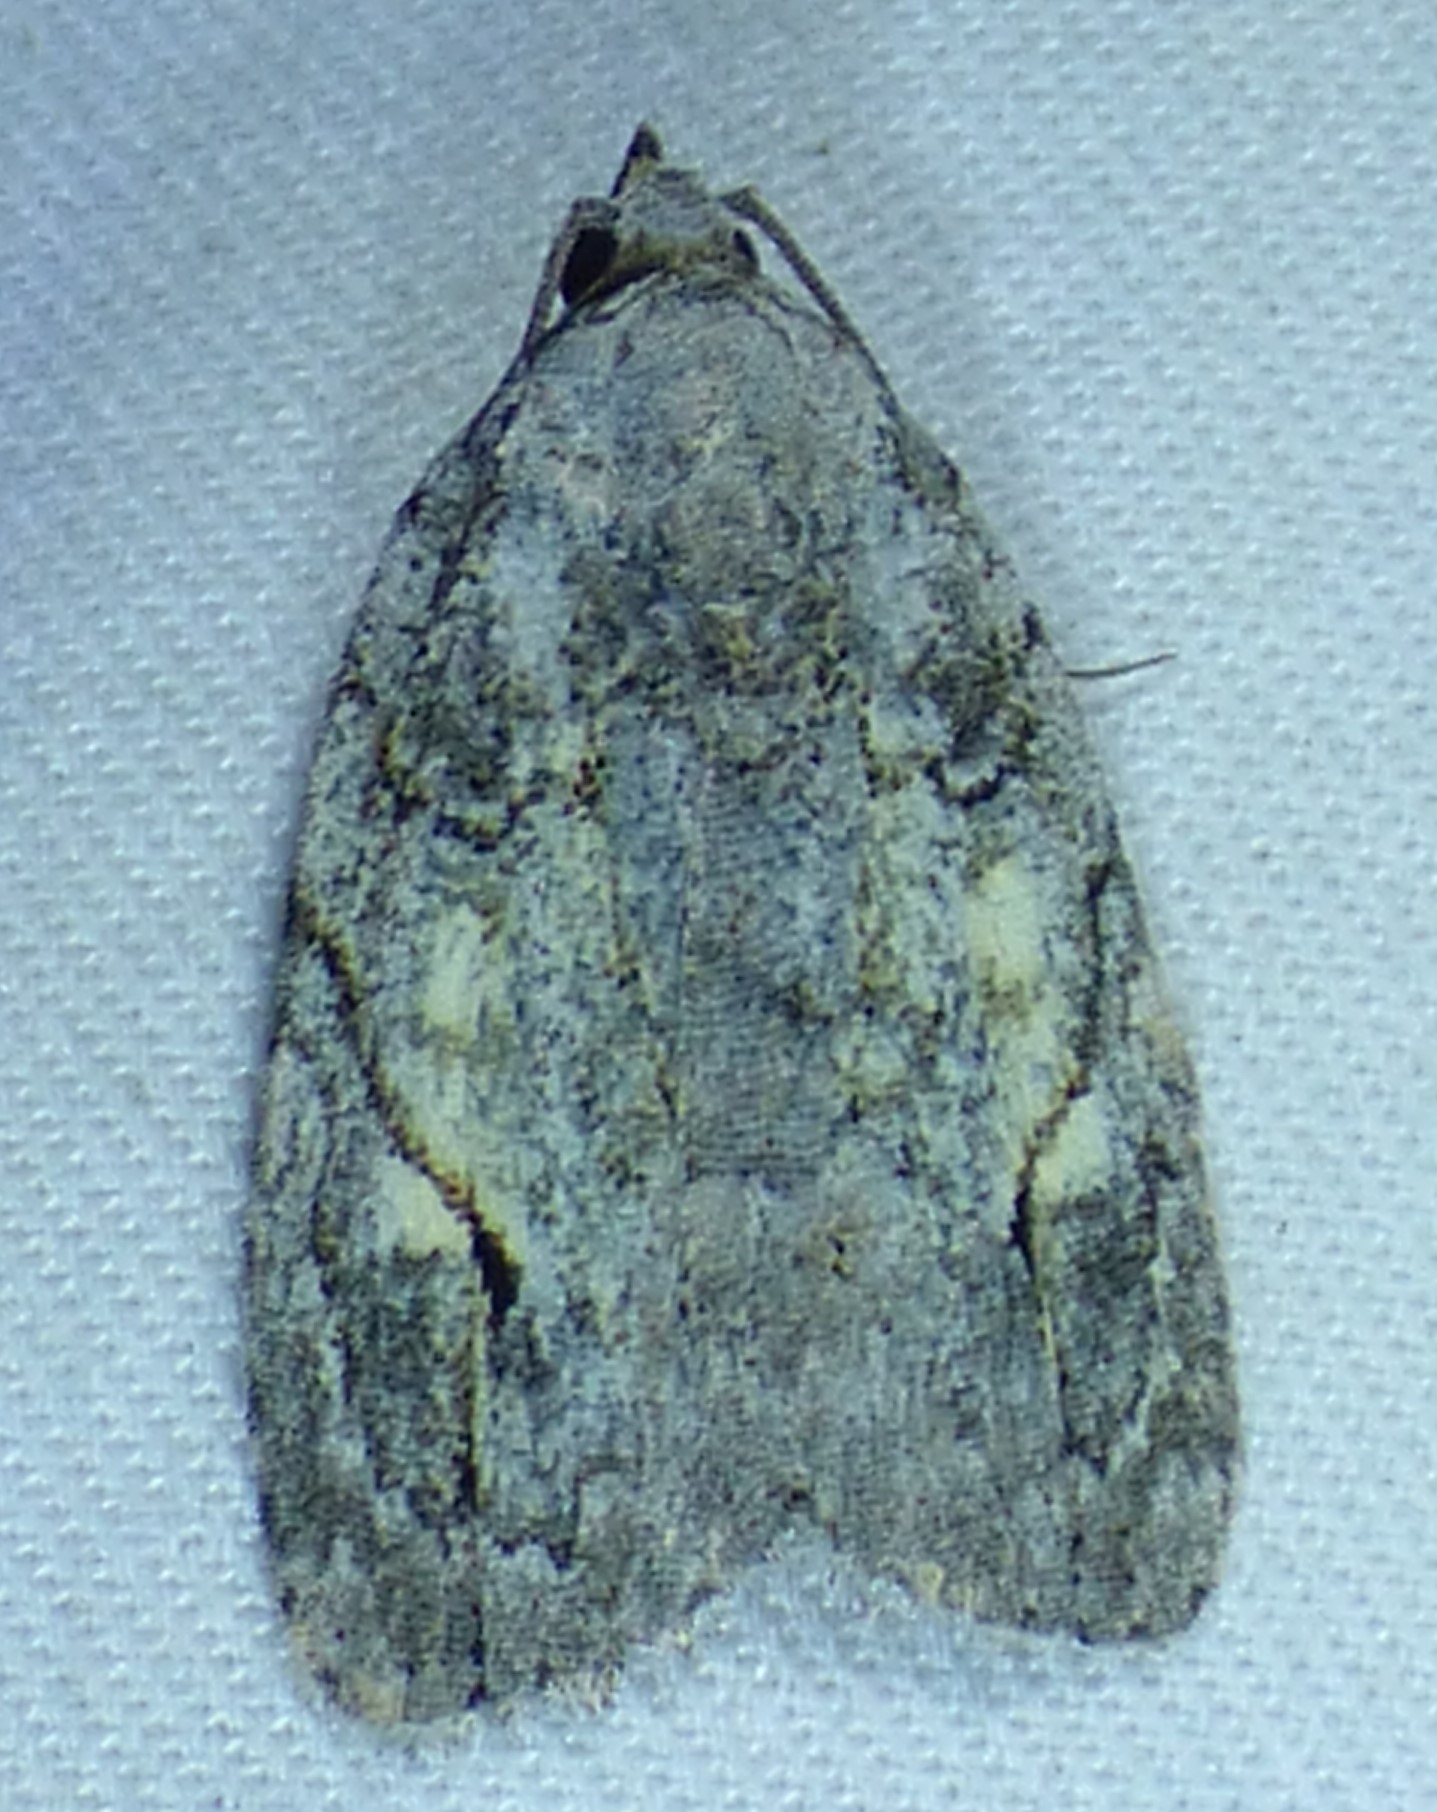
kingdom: Animalia
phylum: Arthropoda
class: Insecta
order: Lepidoptera
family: Noctuidae
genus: Balsa
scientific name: Balsa labecula
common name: White-blotched balsa moth
